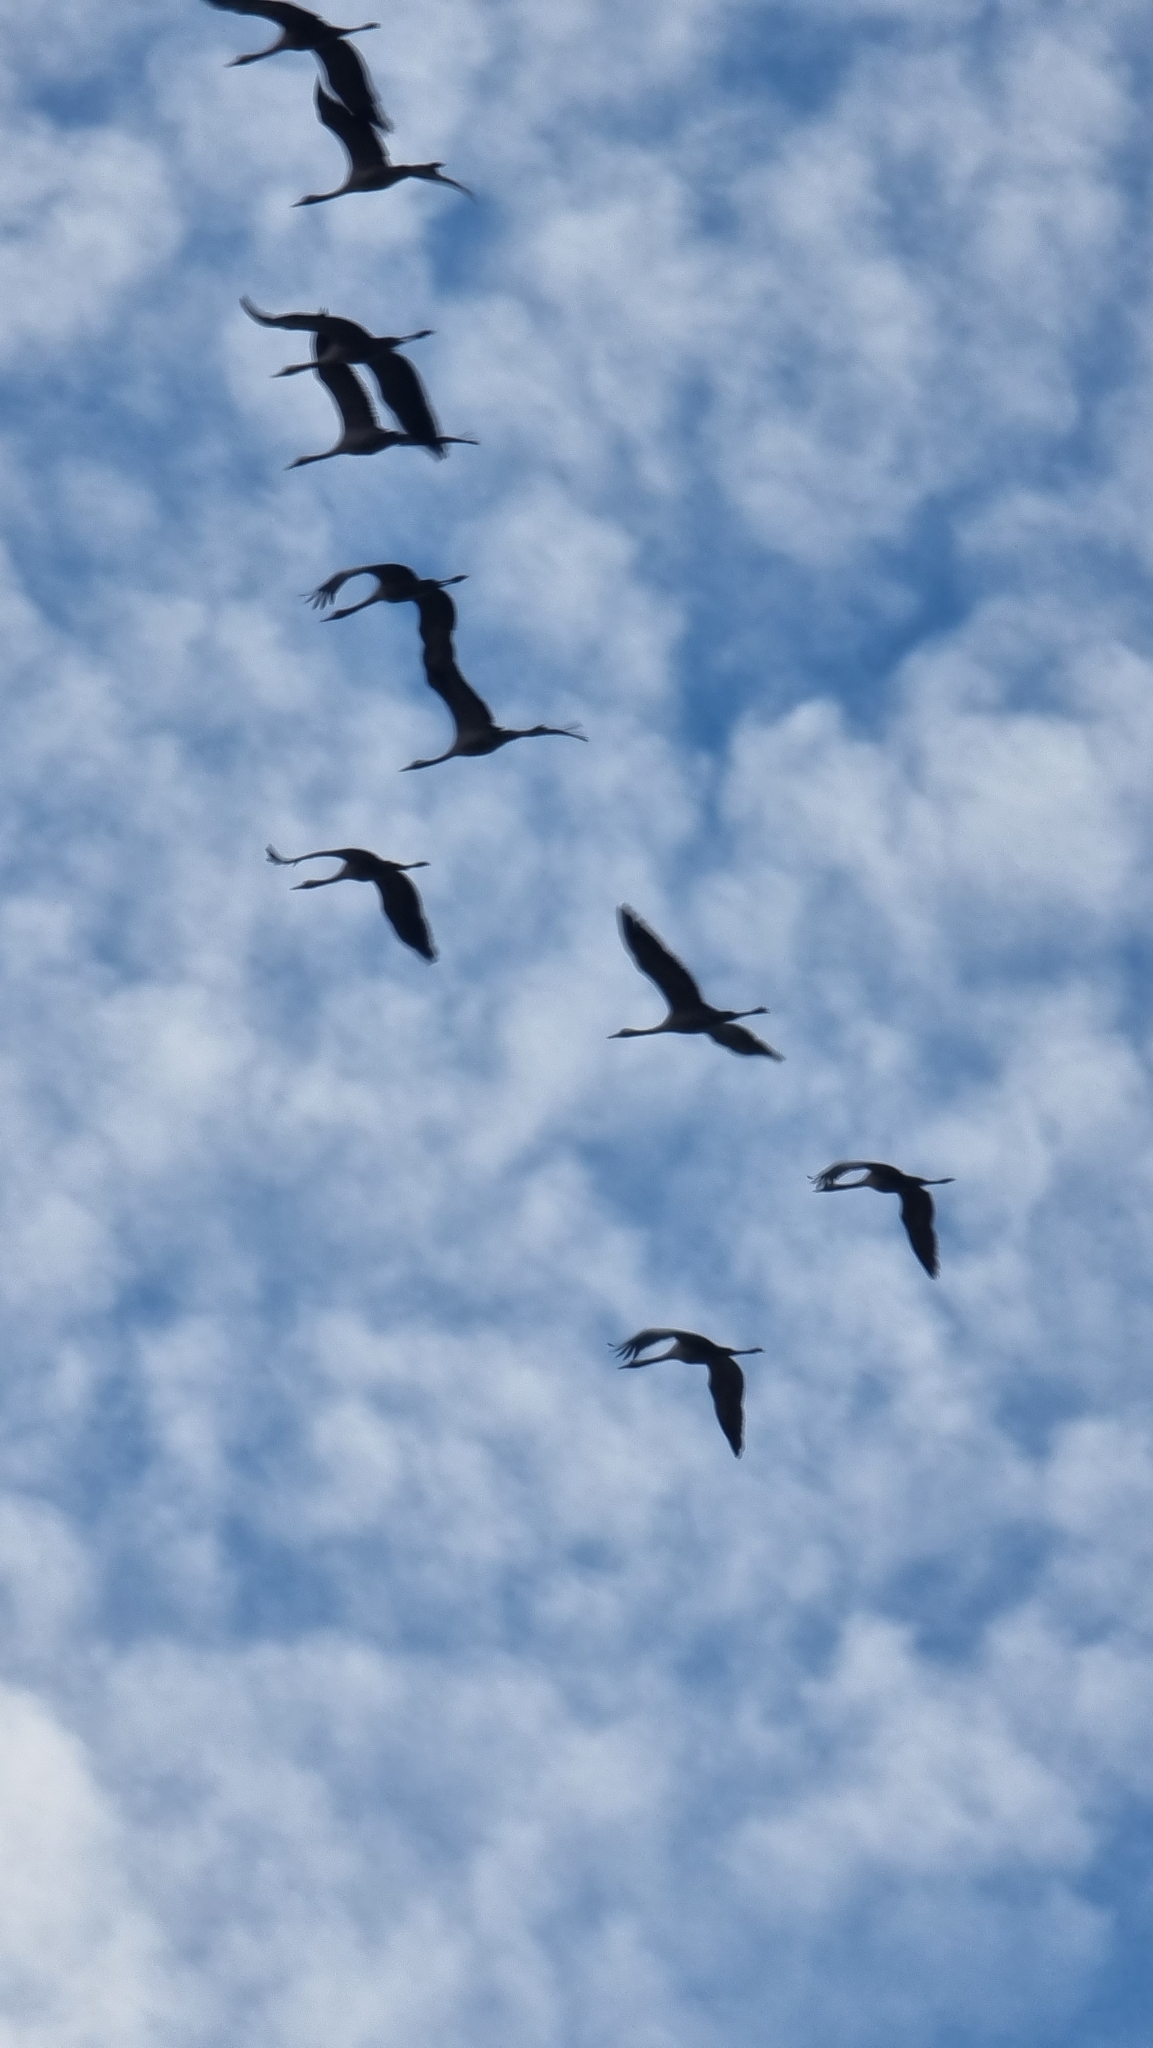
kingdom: Animalia
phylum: Chordata
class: Aves
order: Gruiformes
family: Gruidae
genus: Grus
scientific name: Grus grus
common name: Common crane
